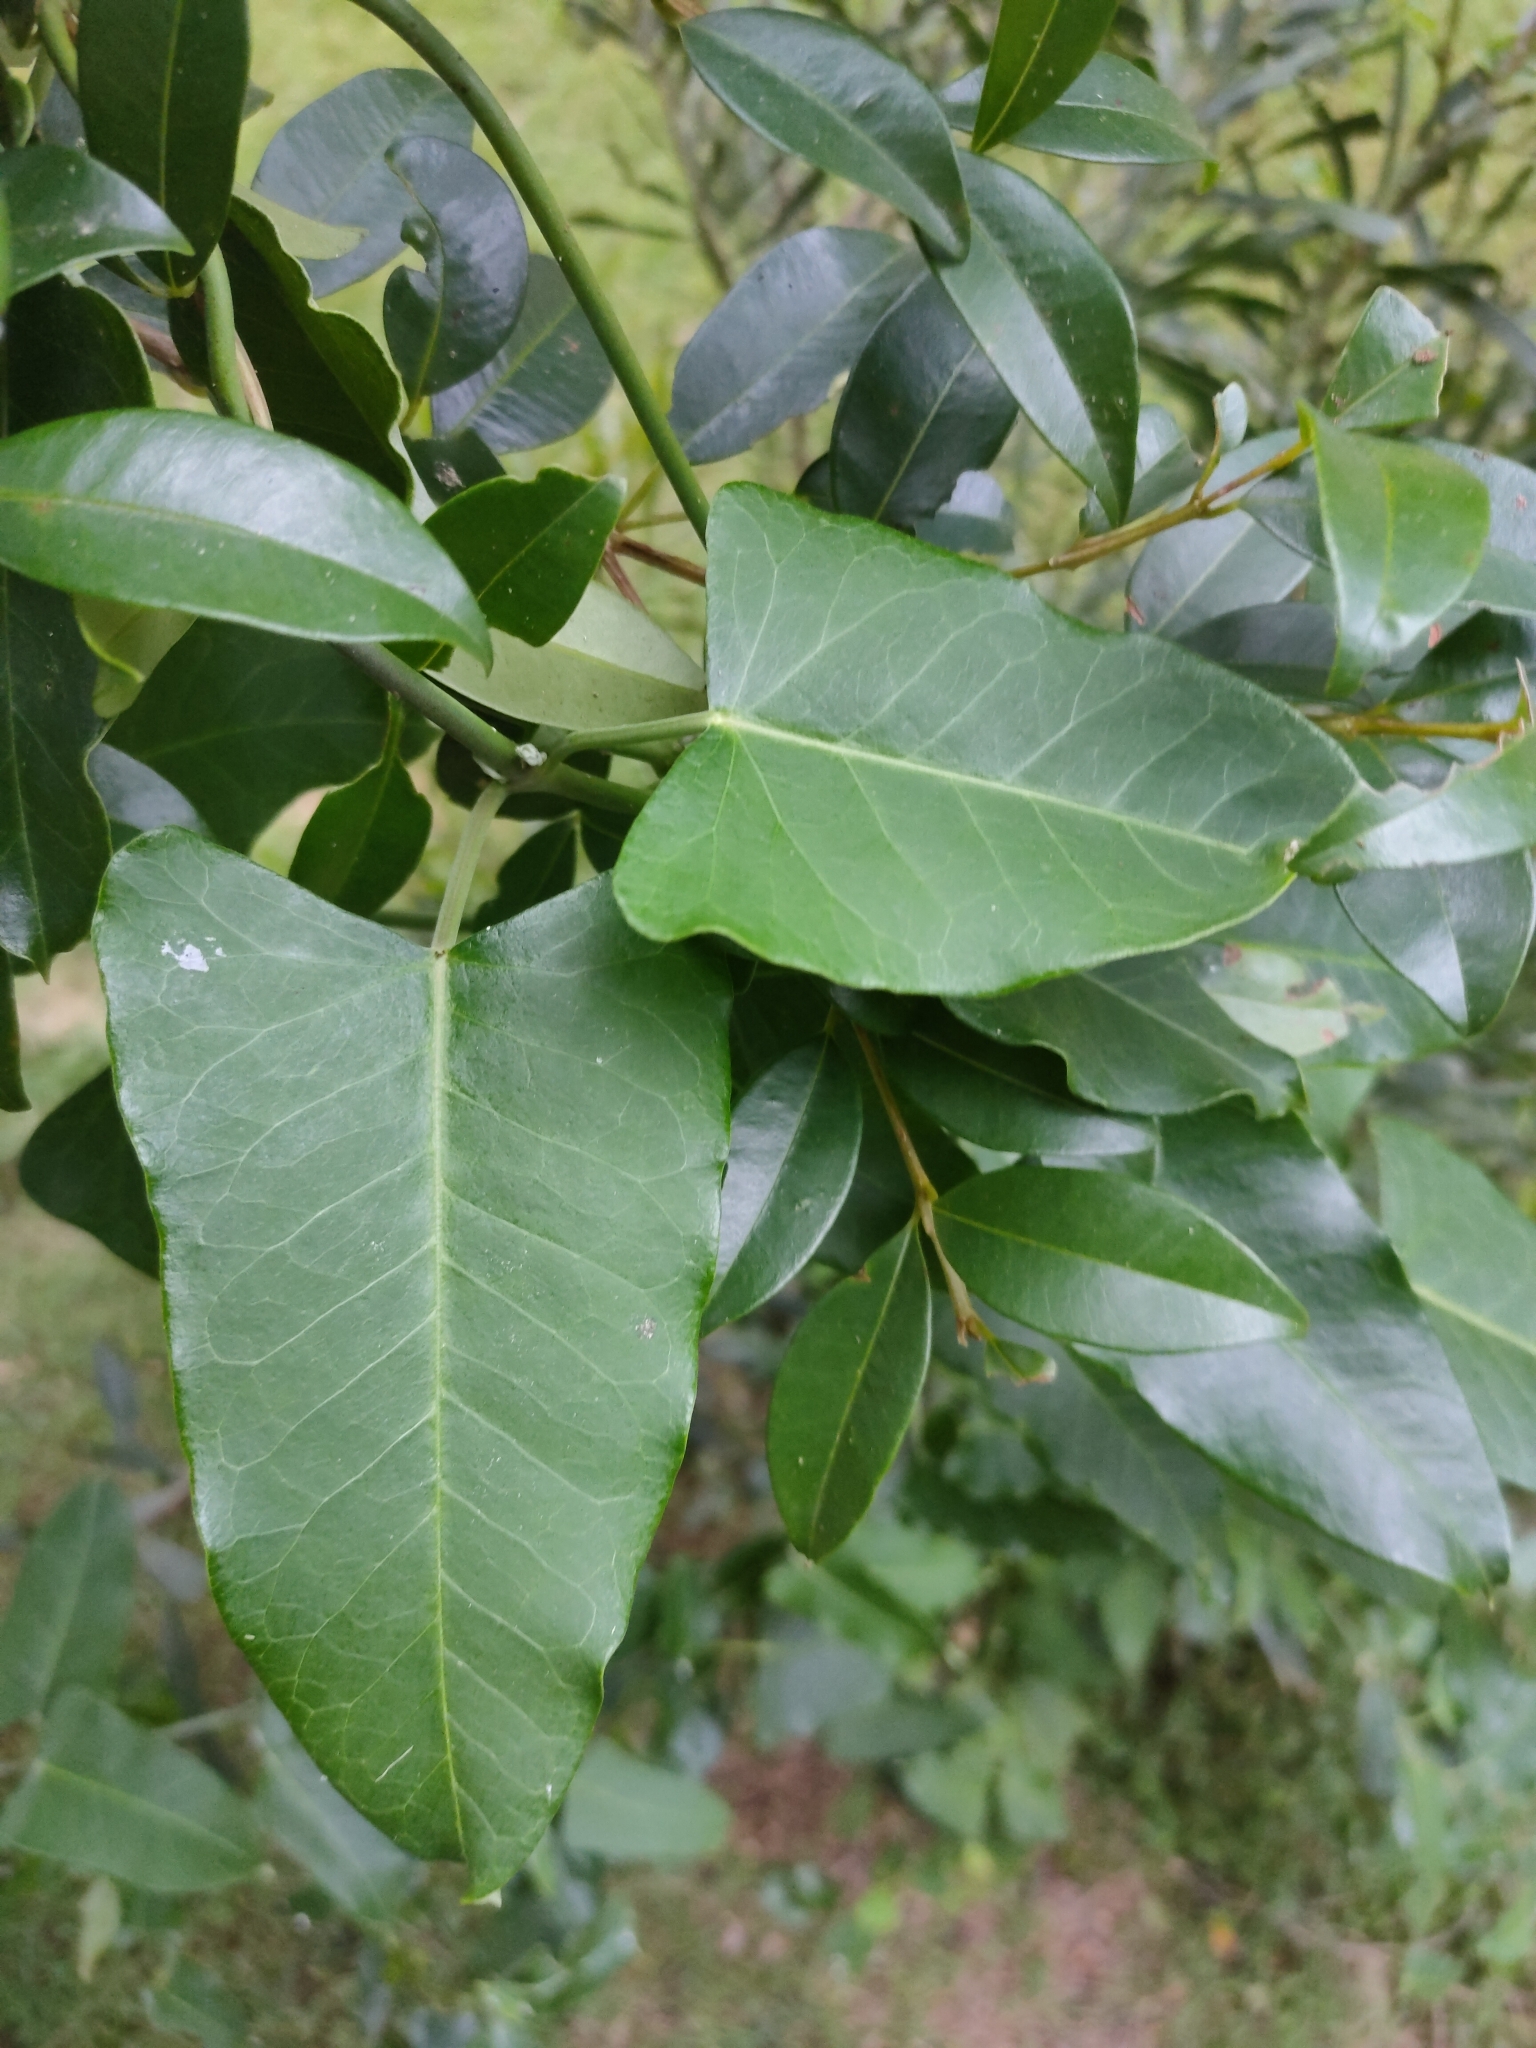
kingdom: Plantae
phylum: Tracheophyta
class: Magnoliopsida
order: Gentianales
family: Apocynaceae
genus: Araujia
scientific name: Araujia sericifera
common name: White bladderflower
